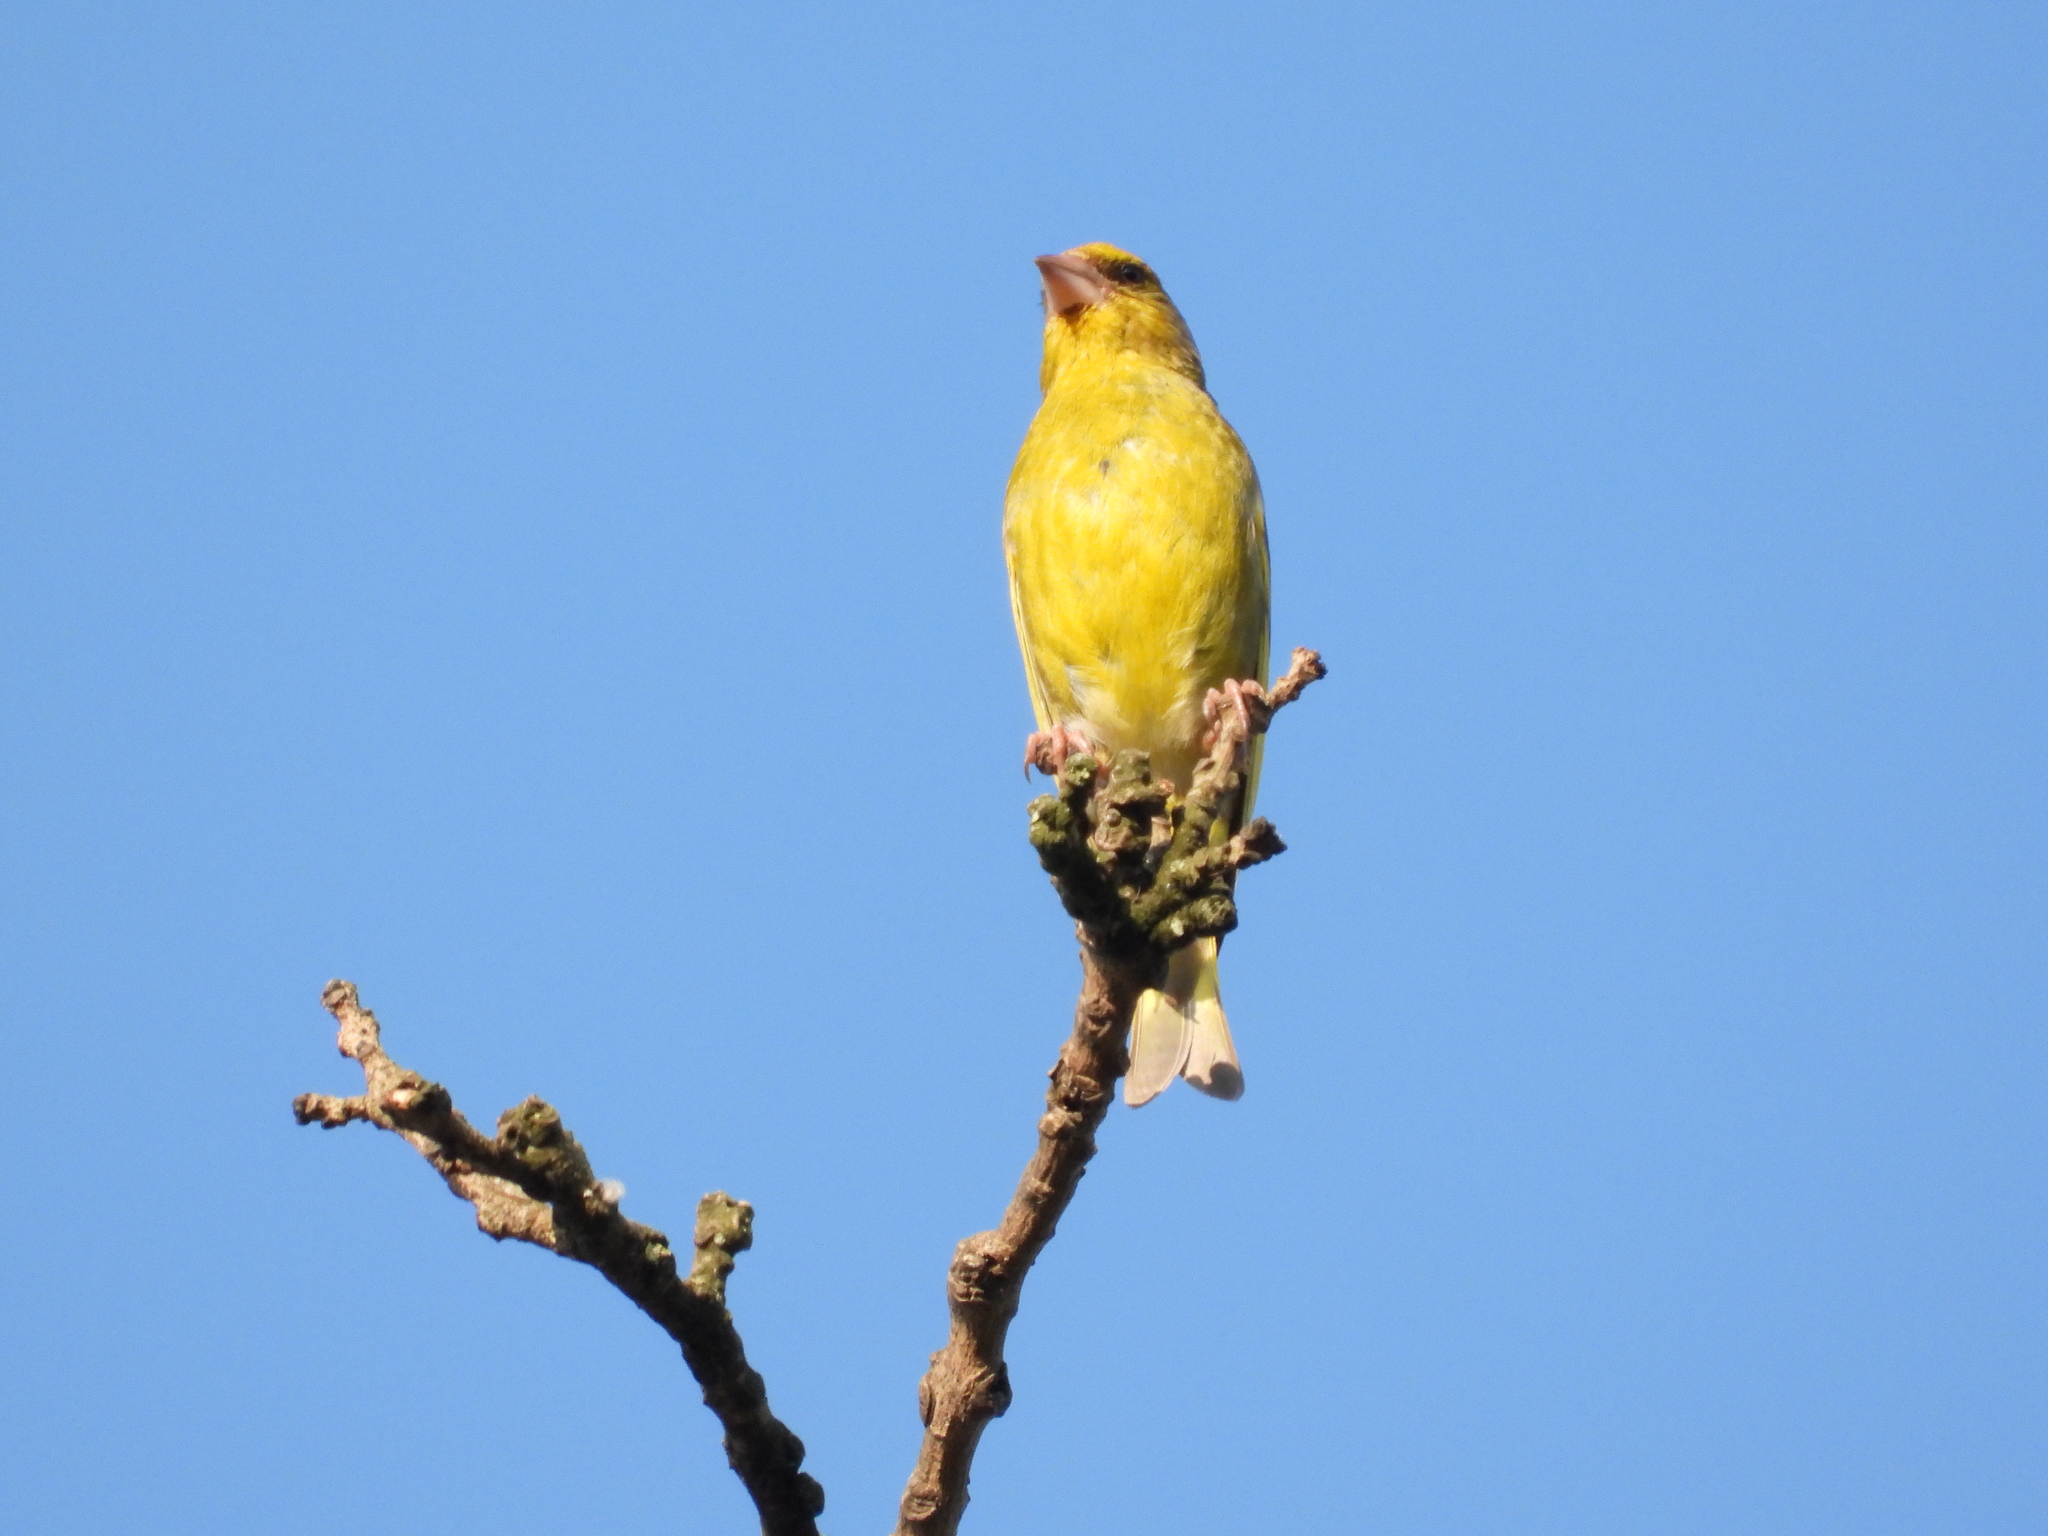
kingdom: Plantae
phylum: Tracheophyta
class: Liliopsida
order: Poales
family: Poaceae
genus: Chloris
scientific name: Chloris chloris
